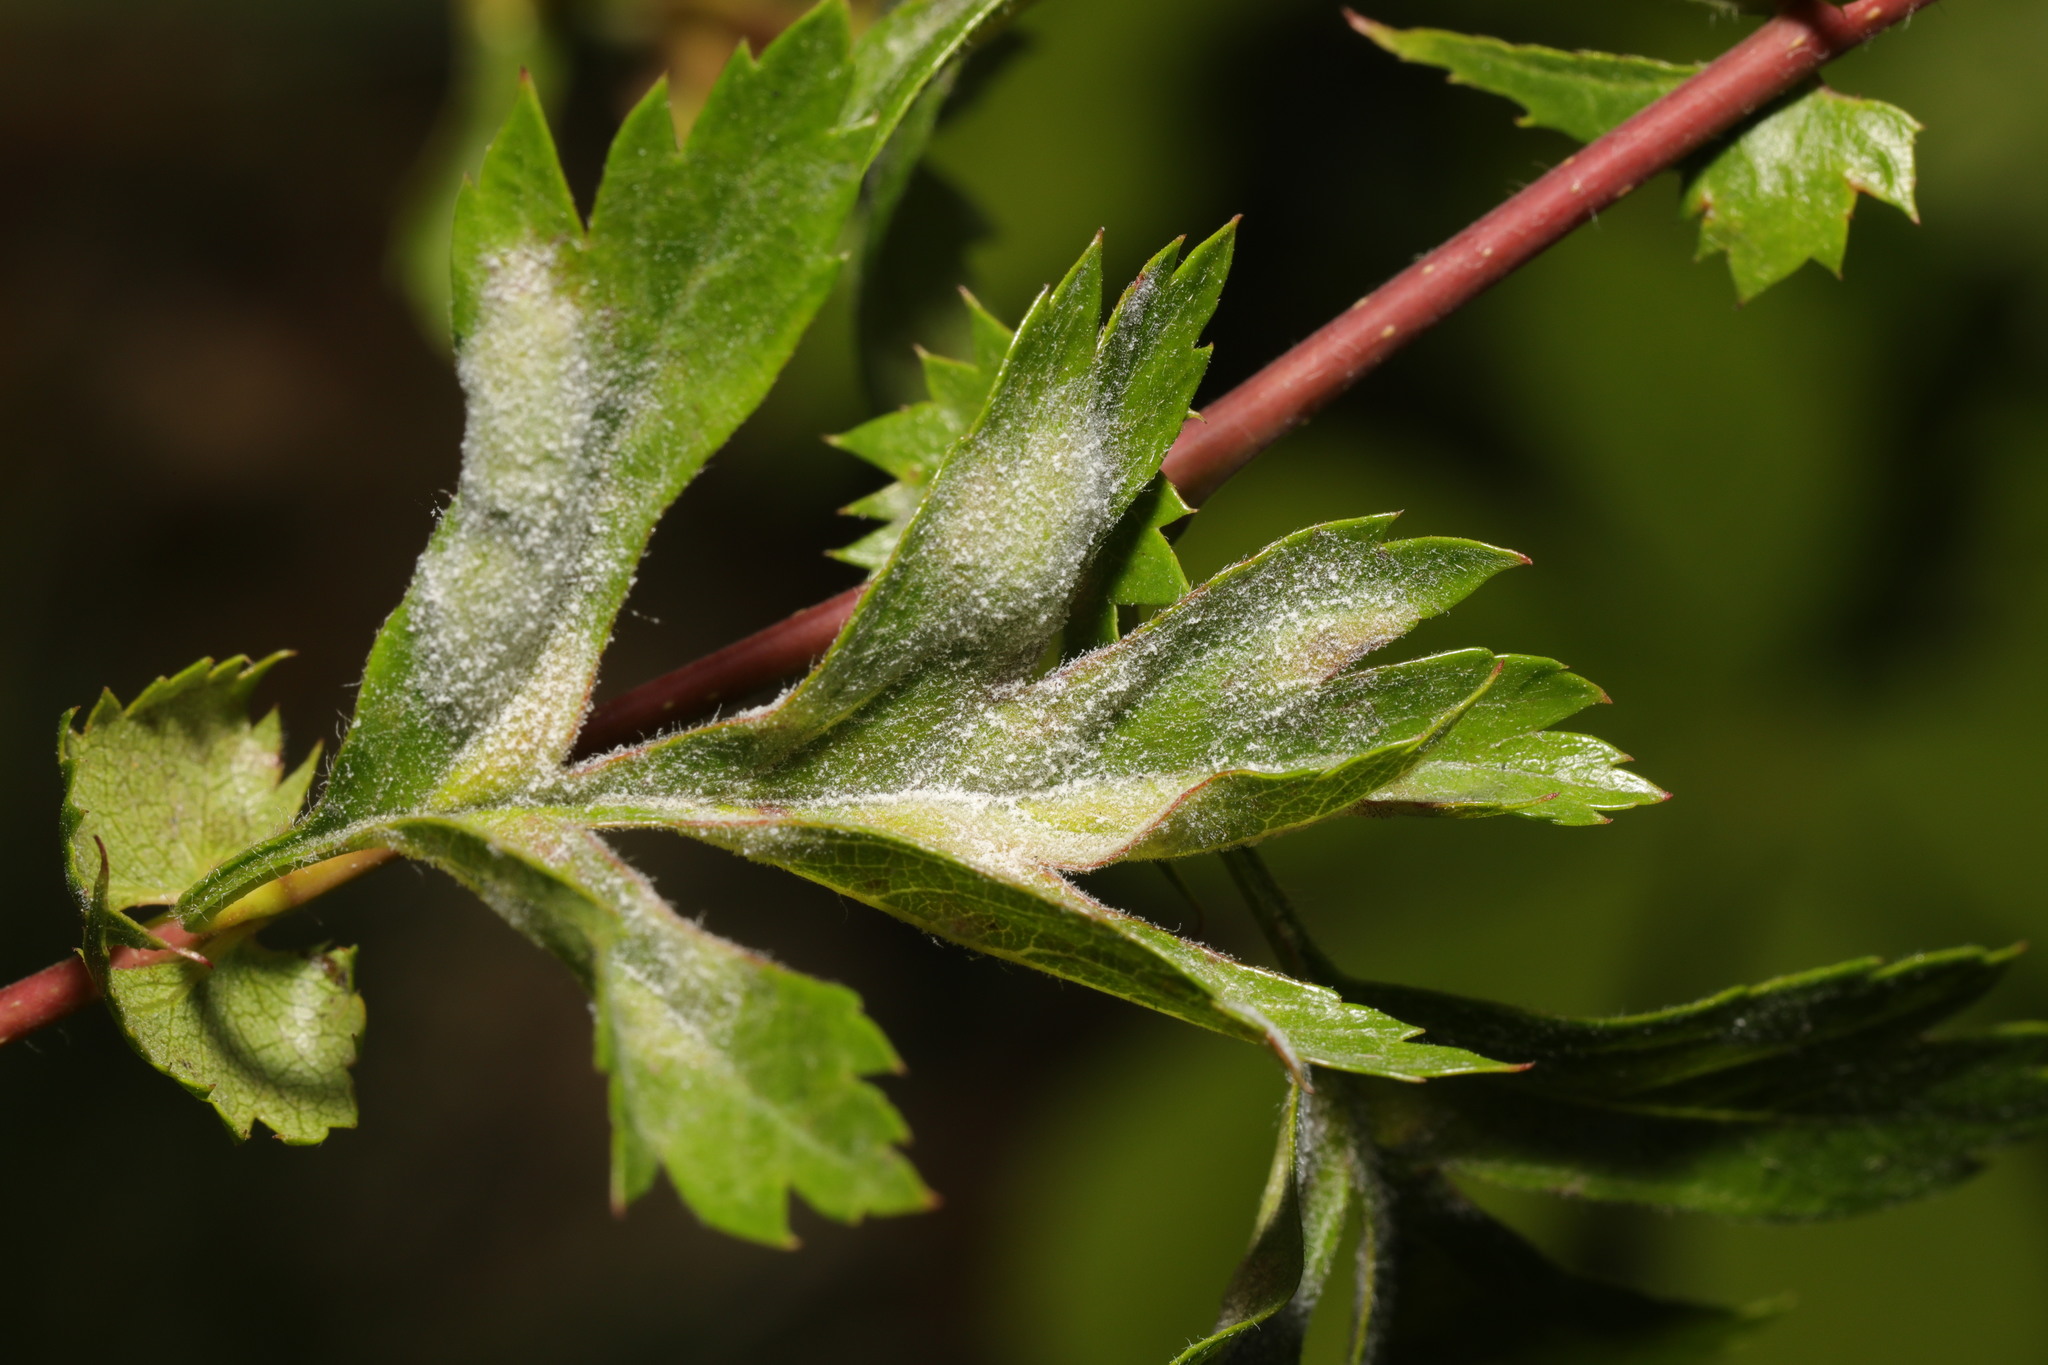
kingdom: Fungi
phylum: Ascomycota
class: Leotiomycetes
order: Helotiales
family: Erysiphaceae
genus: Podosphaera
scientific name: Podosphaera clandestina
